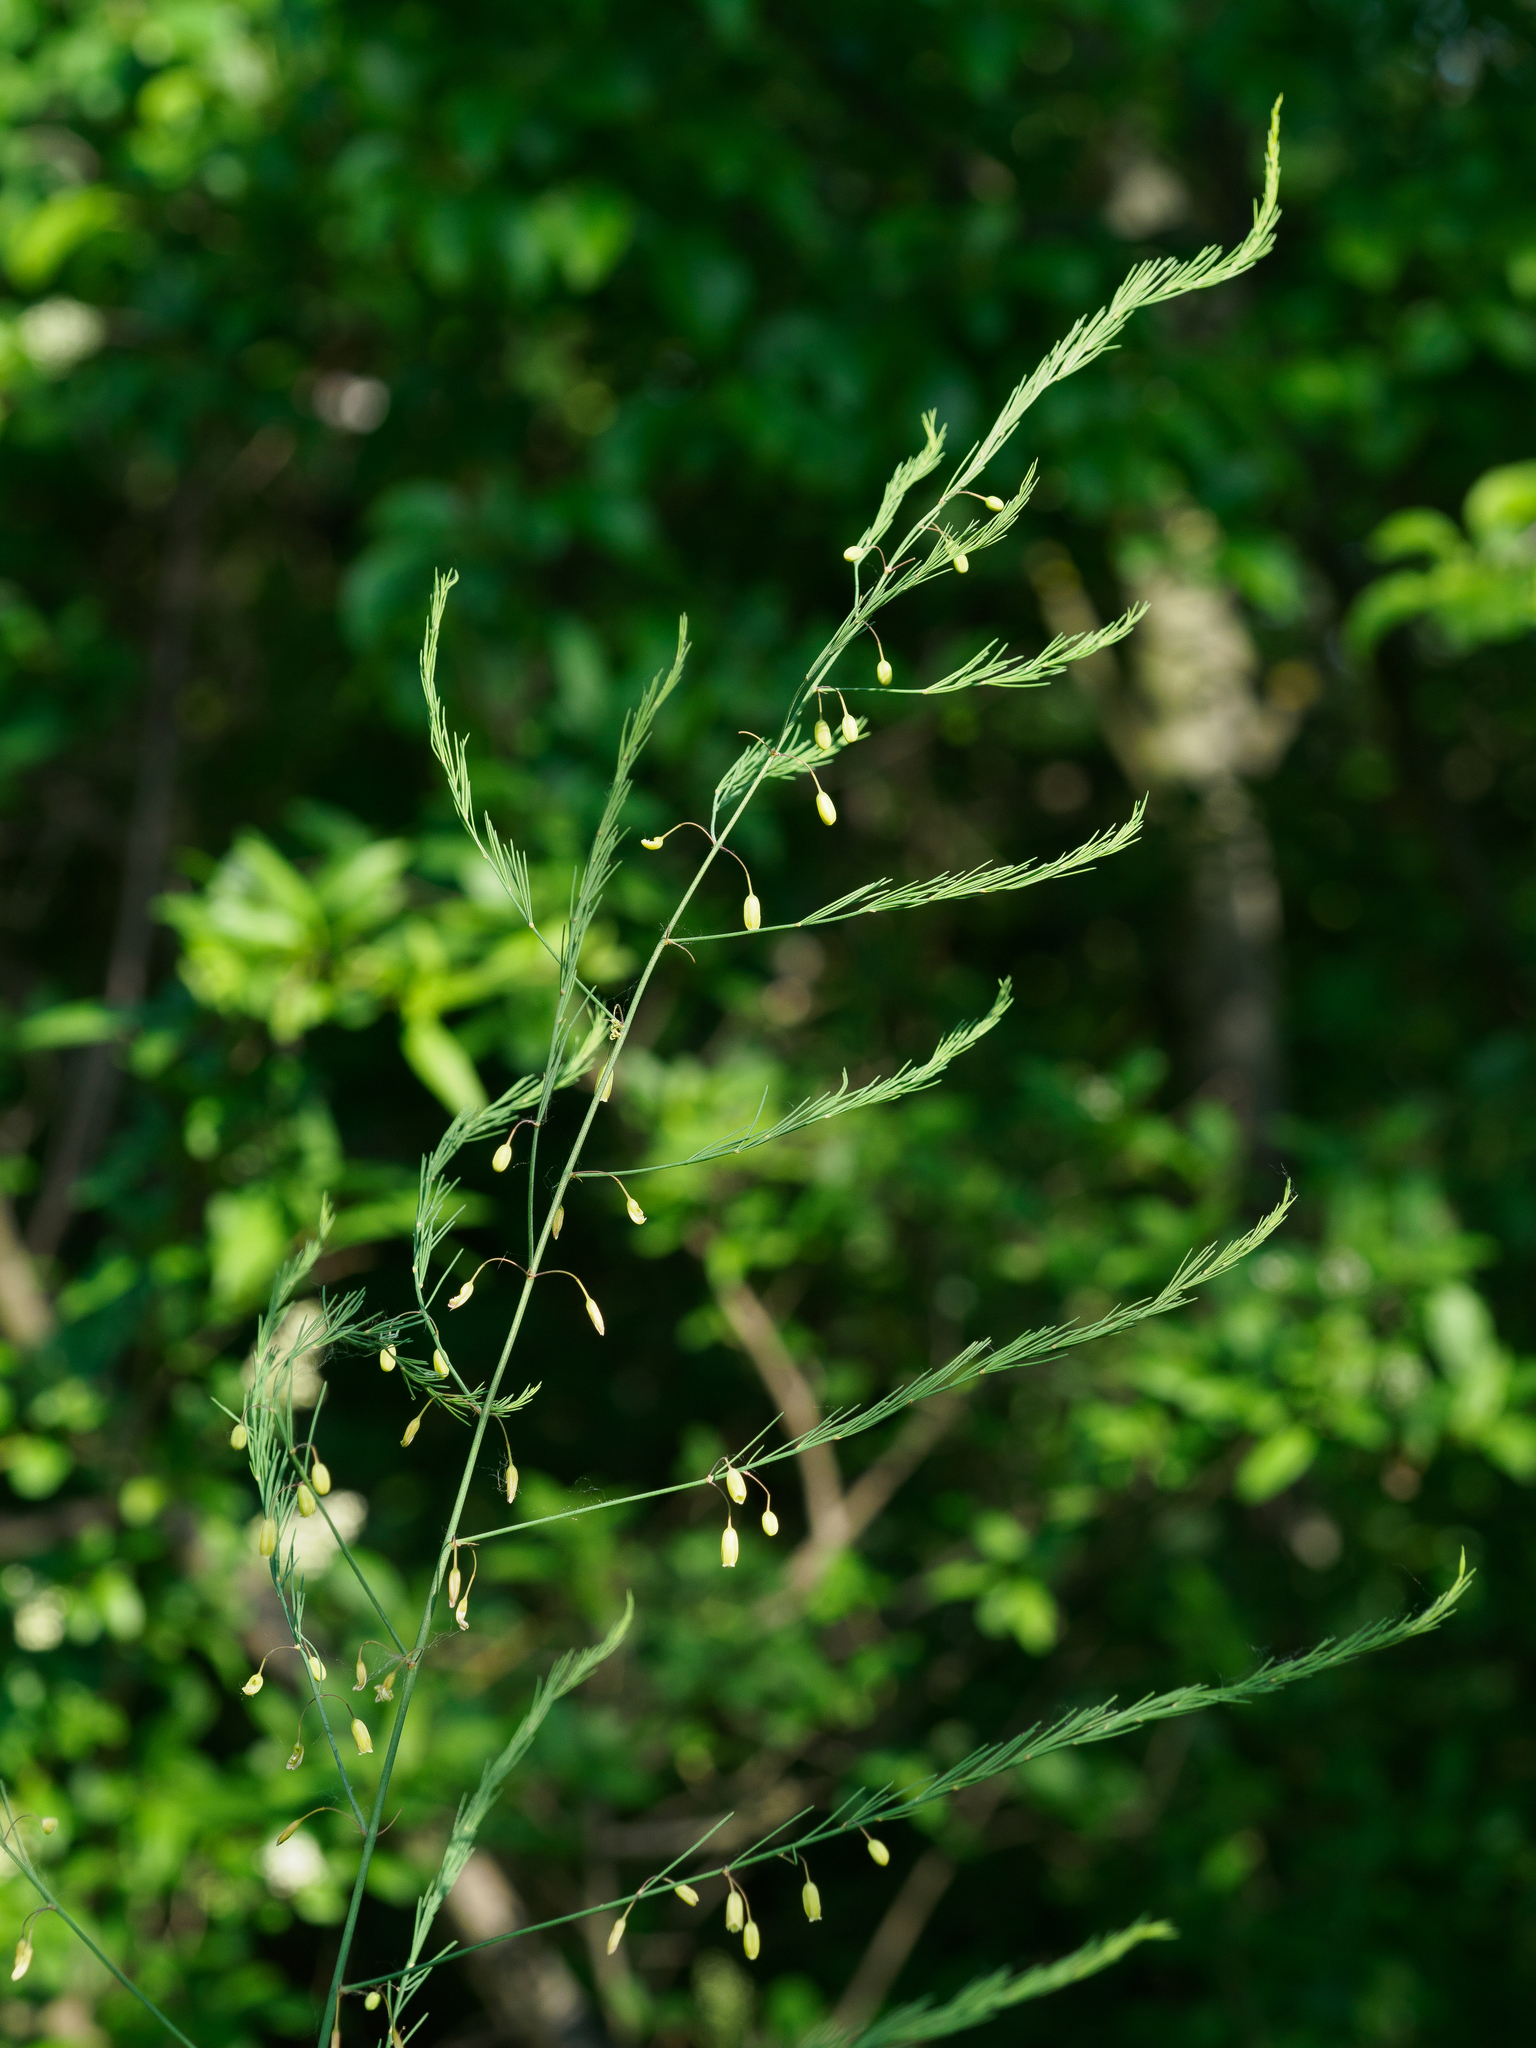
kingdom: Plantae
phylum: Tracheophyta
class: Liliopsida
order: Asparagales
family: Asparagaceae
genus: Asparagus
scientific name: Asparagus officinalis
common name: Garden asparagus
